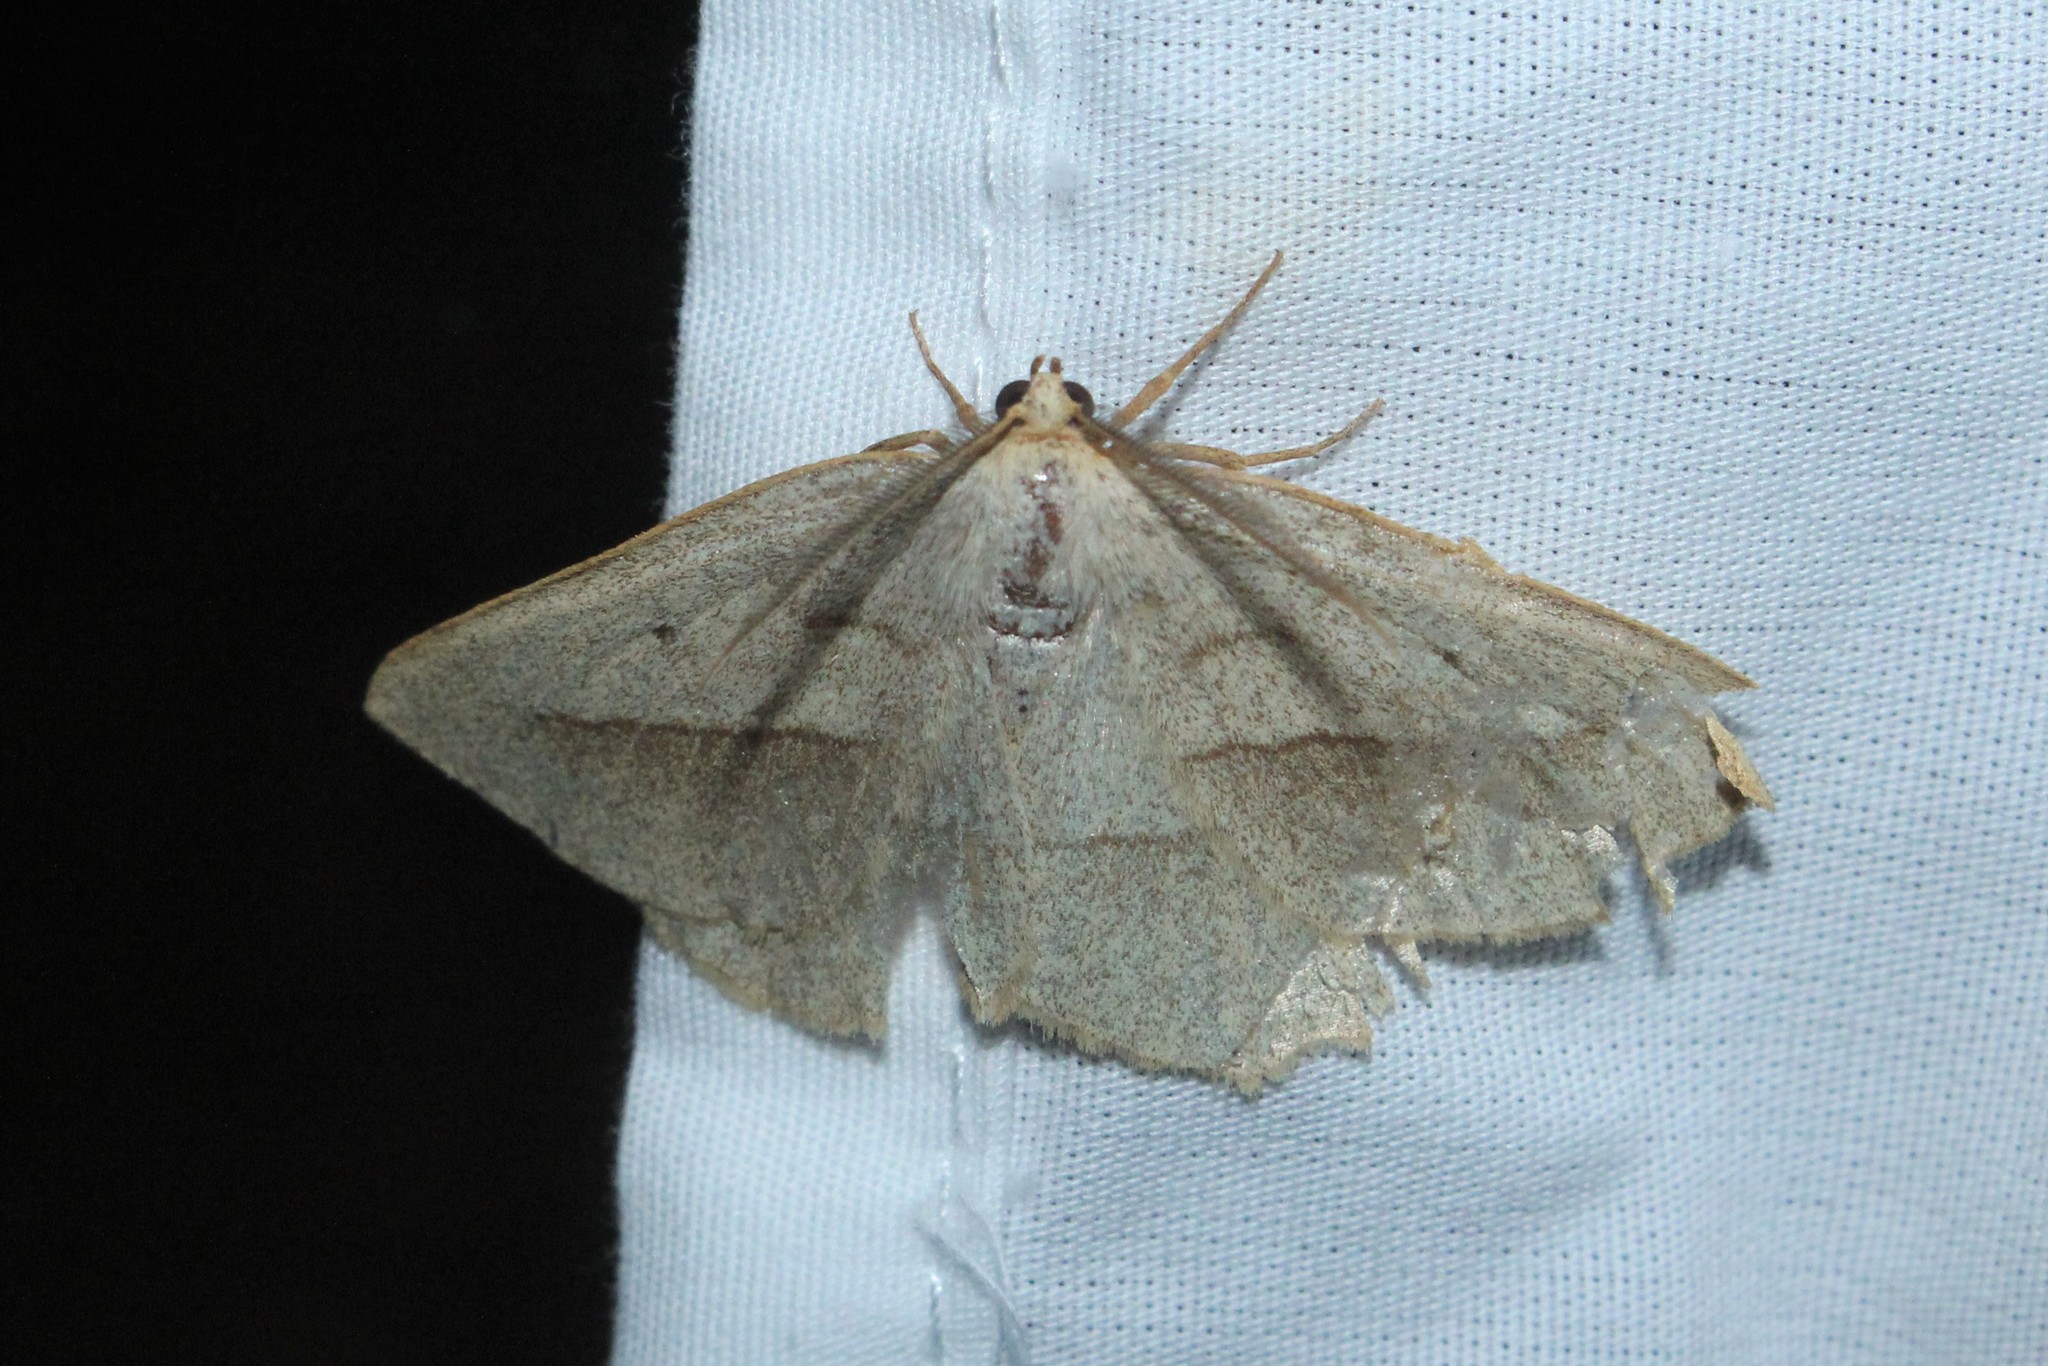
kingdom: Animalia
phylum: Arthropoda
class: Insecta
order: Lepidoptera
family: Geometridae
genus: Euchlaena
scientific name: Euchlaena irraria
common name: Least-marked euchlaena
